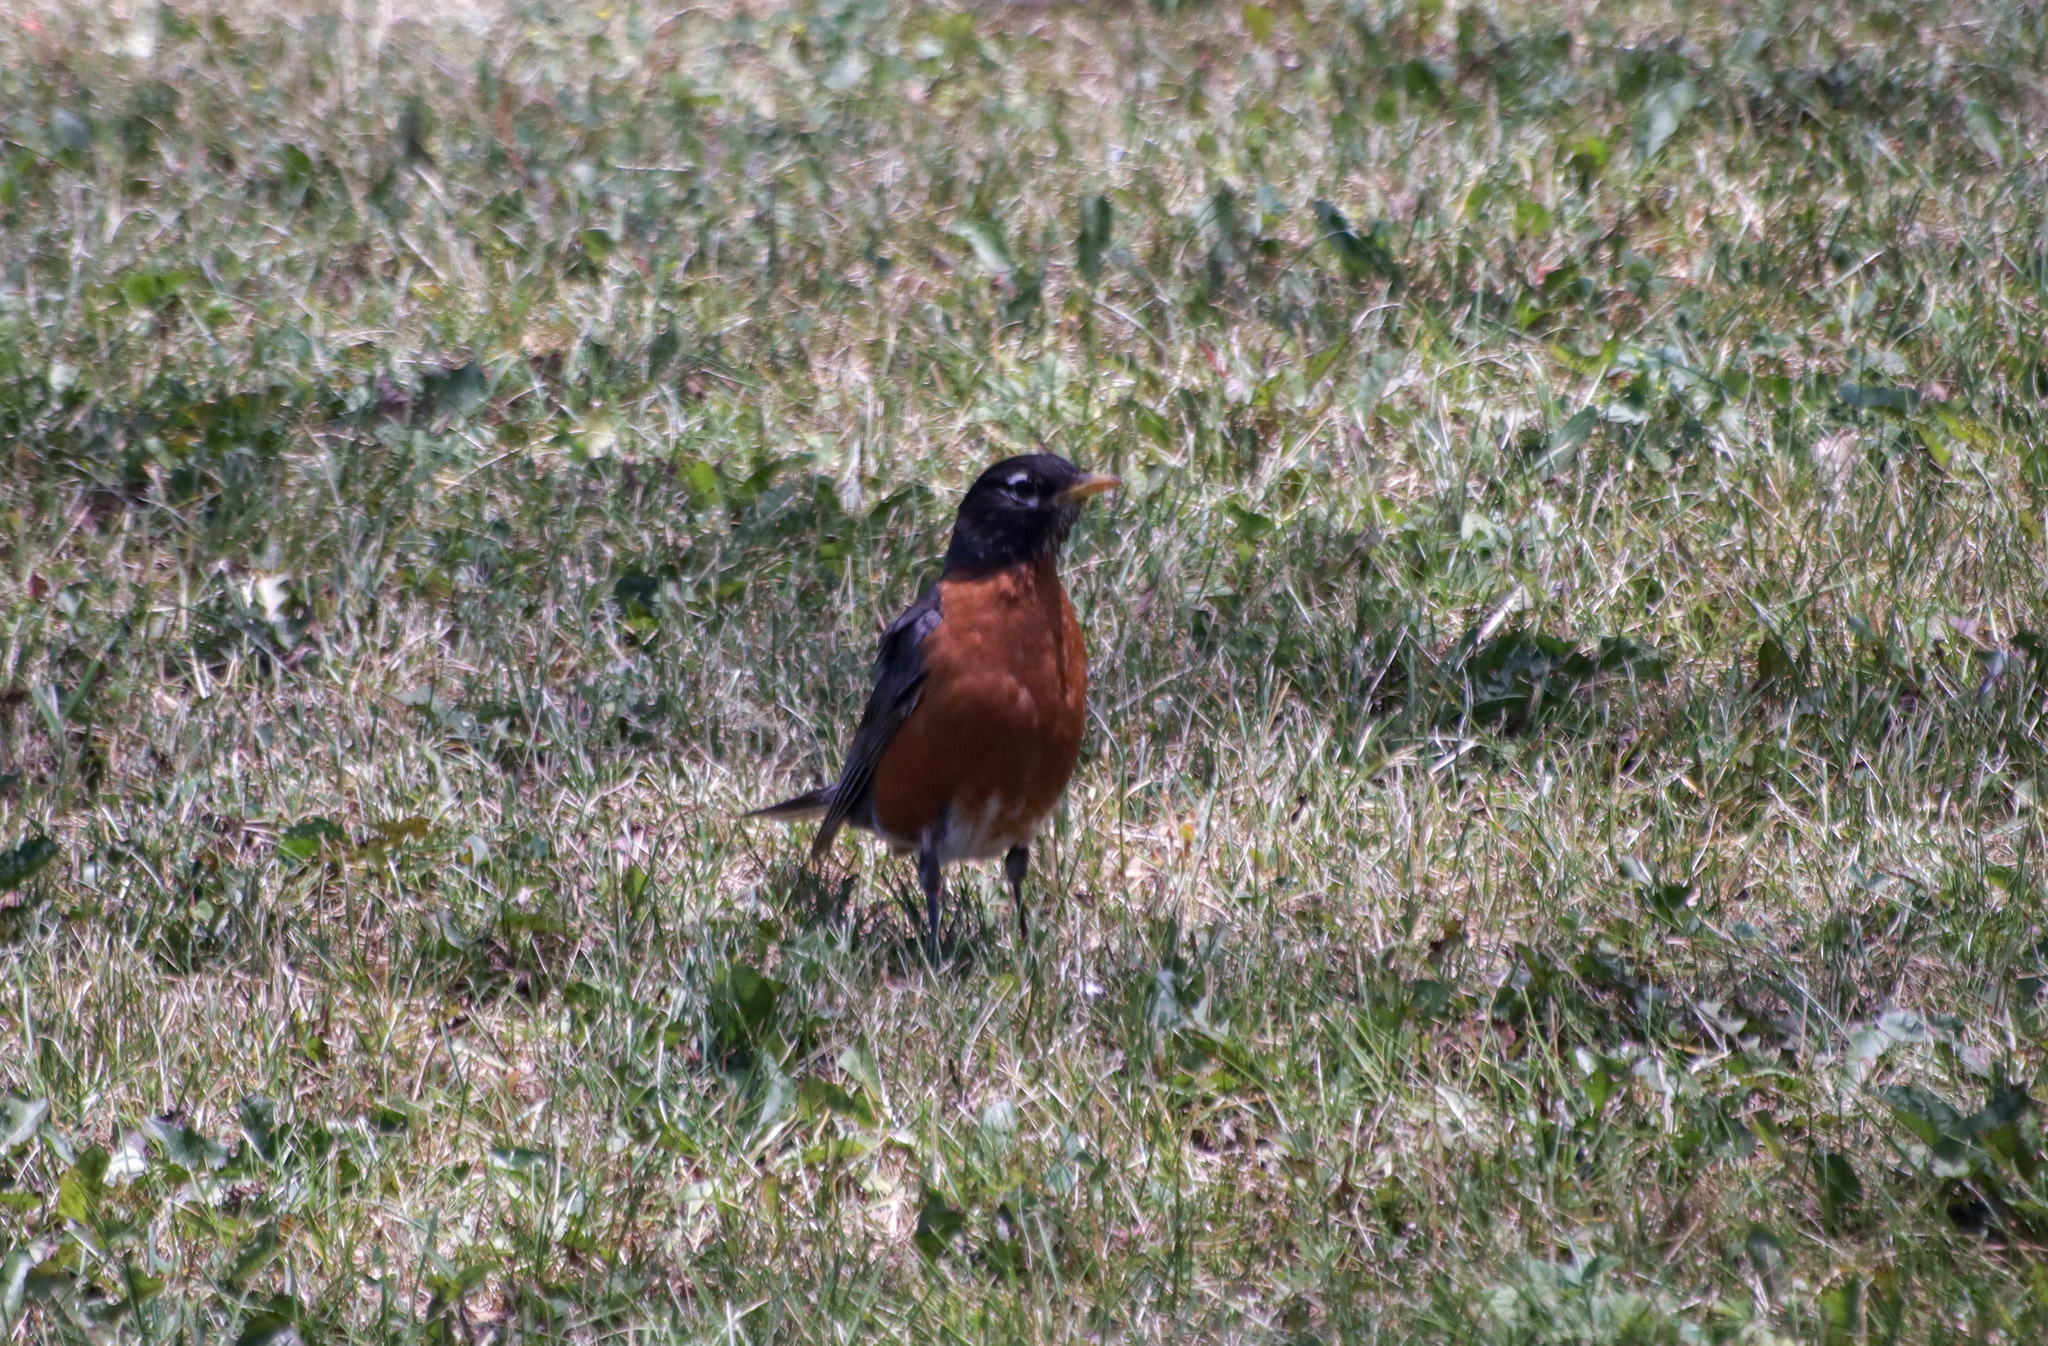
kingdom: Animalia
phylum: Chordata
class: Aves
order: Passeriformes
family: Turdidae
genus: Turdus
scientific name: Turdus migratorius
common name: American robin
